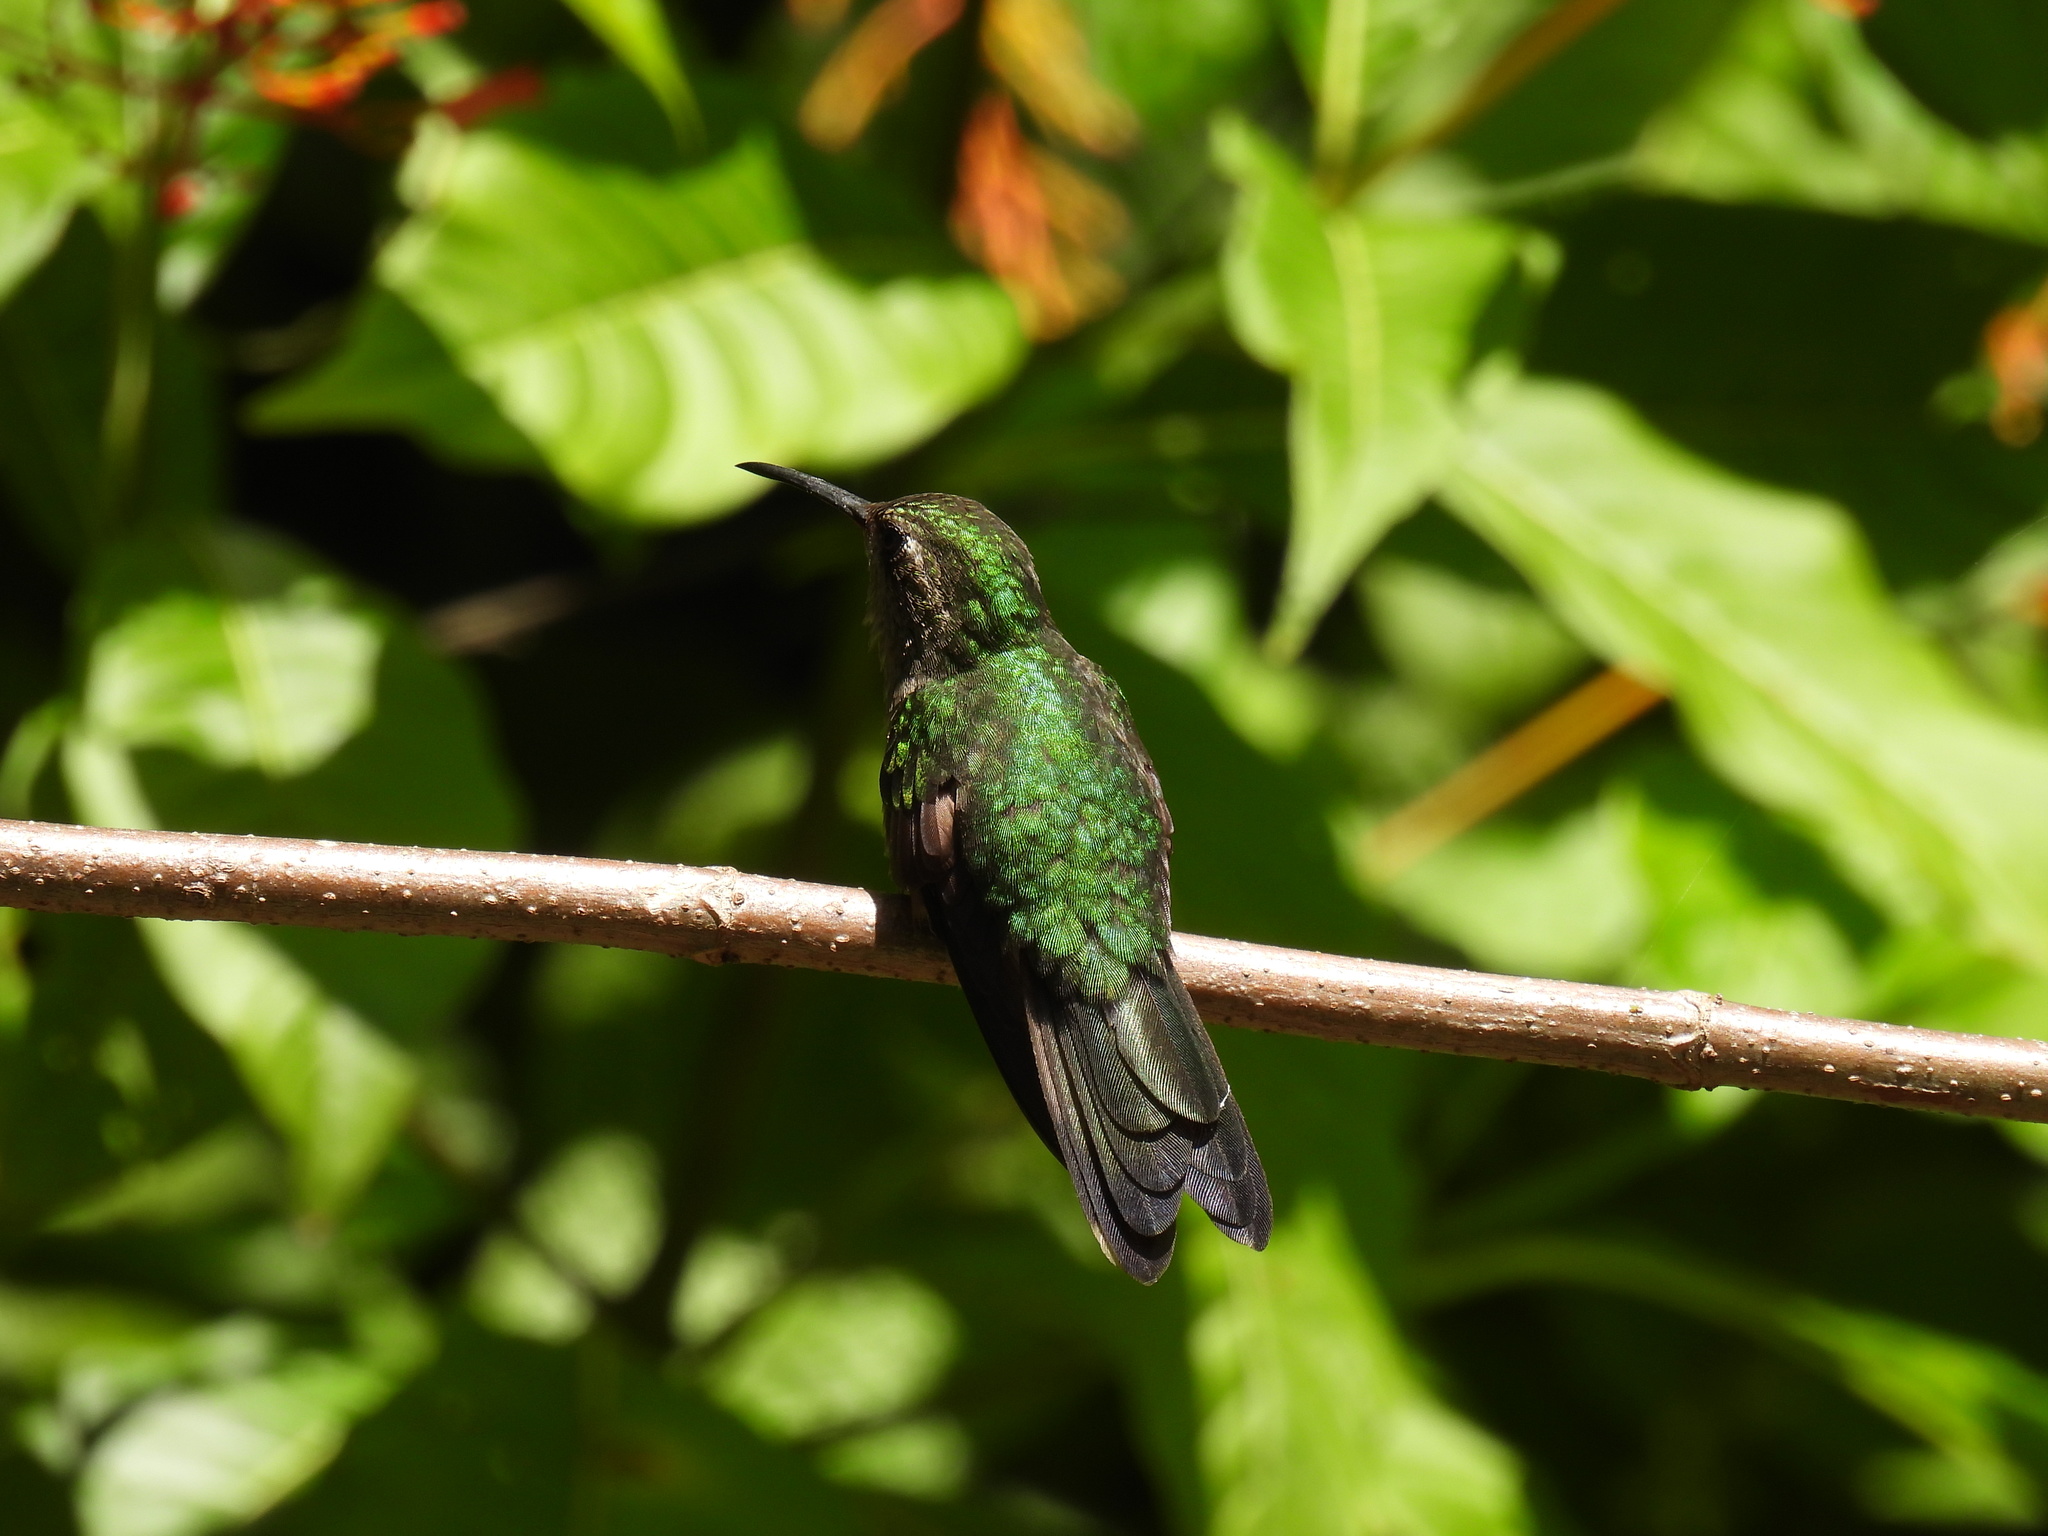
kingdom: Animalia
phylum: Chordata
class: Aves
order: Apodiformes
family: Trochilidae
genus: Riccordia
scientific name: Riccordia swainsonii
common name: Hispaniolan emerald
